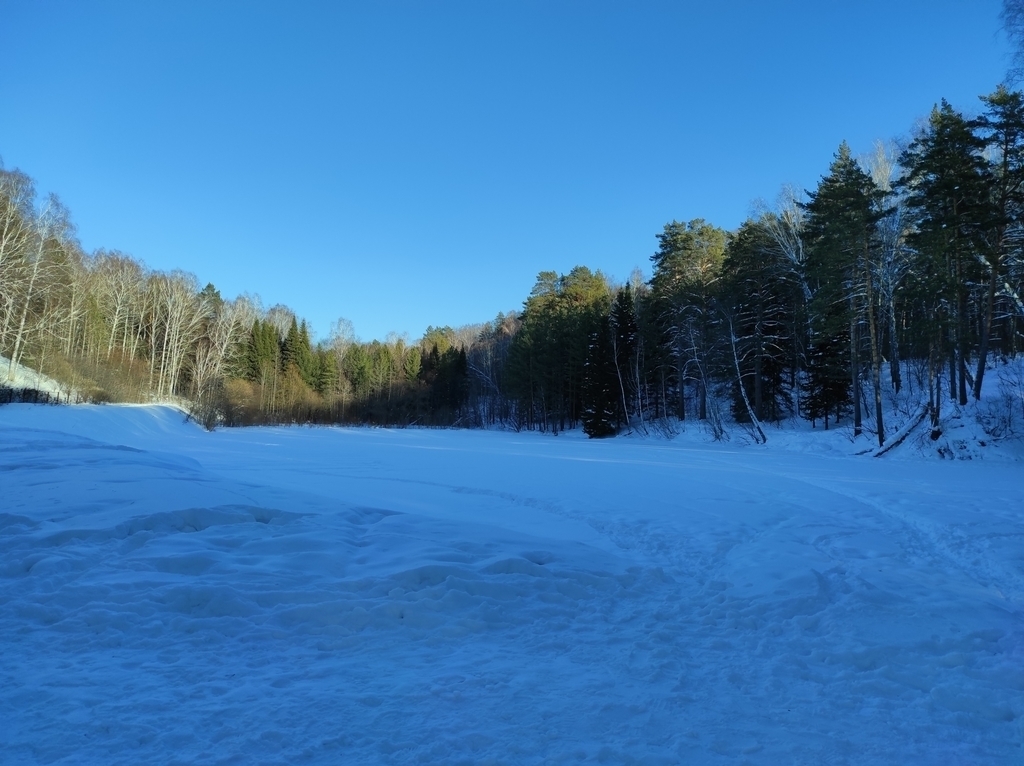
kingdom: Animalia
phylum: Chordata
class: Aves
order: Passeriformes
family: Corvidae
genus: Garrulus
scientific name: Garrulus glandarius
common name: Eurasian jay
